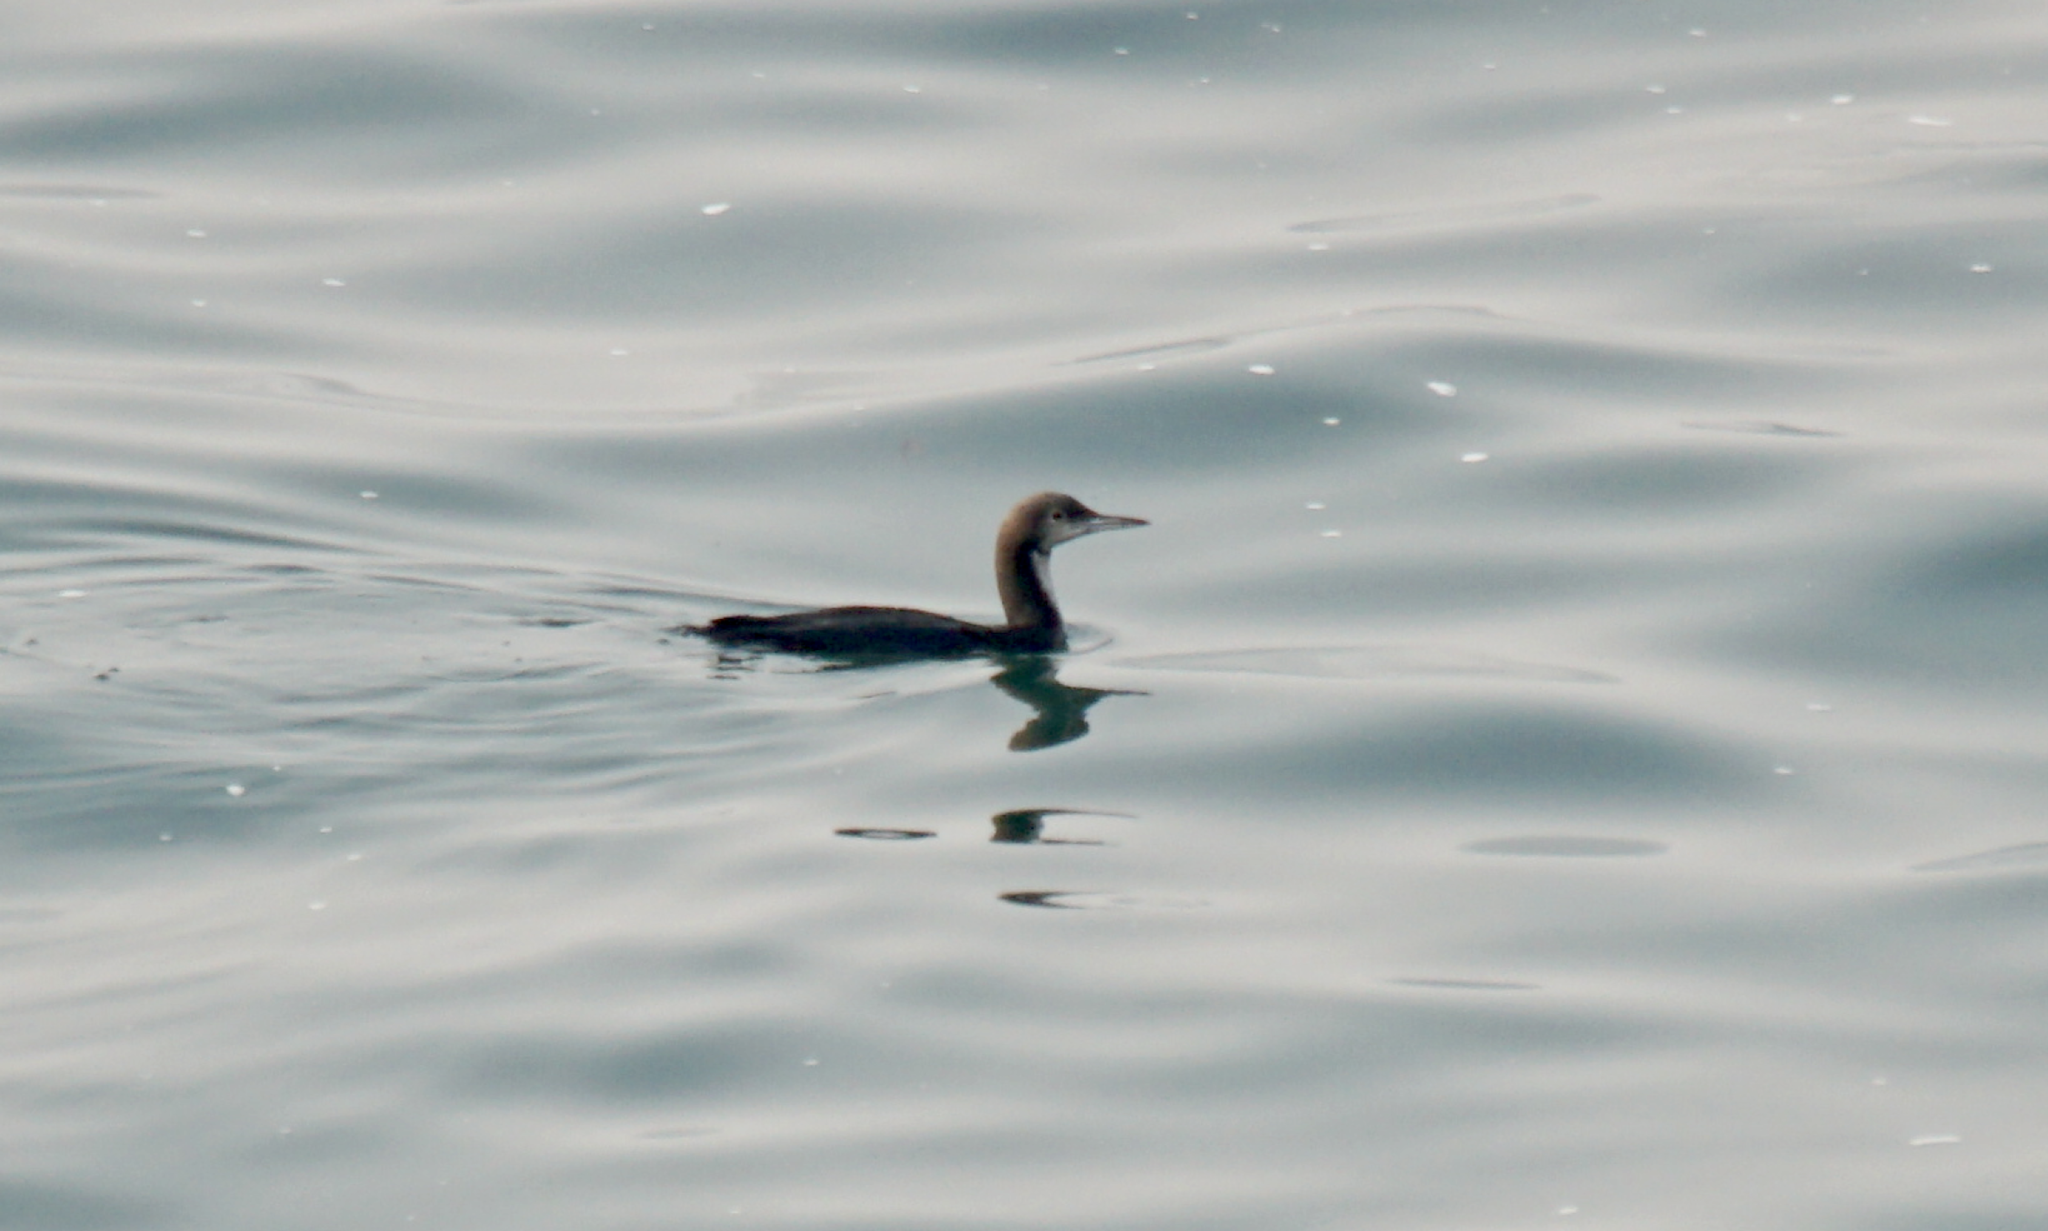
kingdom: Animalia
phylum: Chordata
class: Aves
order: Gaviiformes
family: Gaviidae
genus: Gavia
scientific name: Gavia pacifica
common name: Pacific loon
